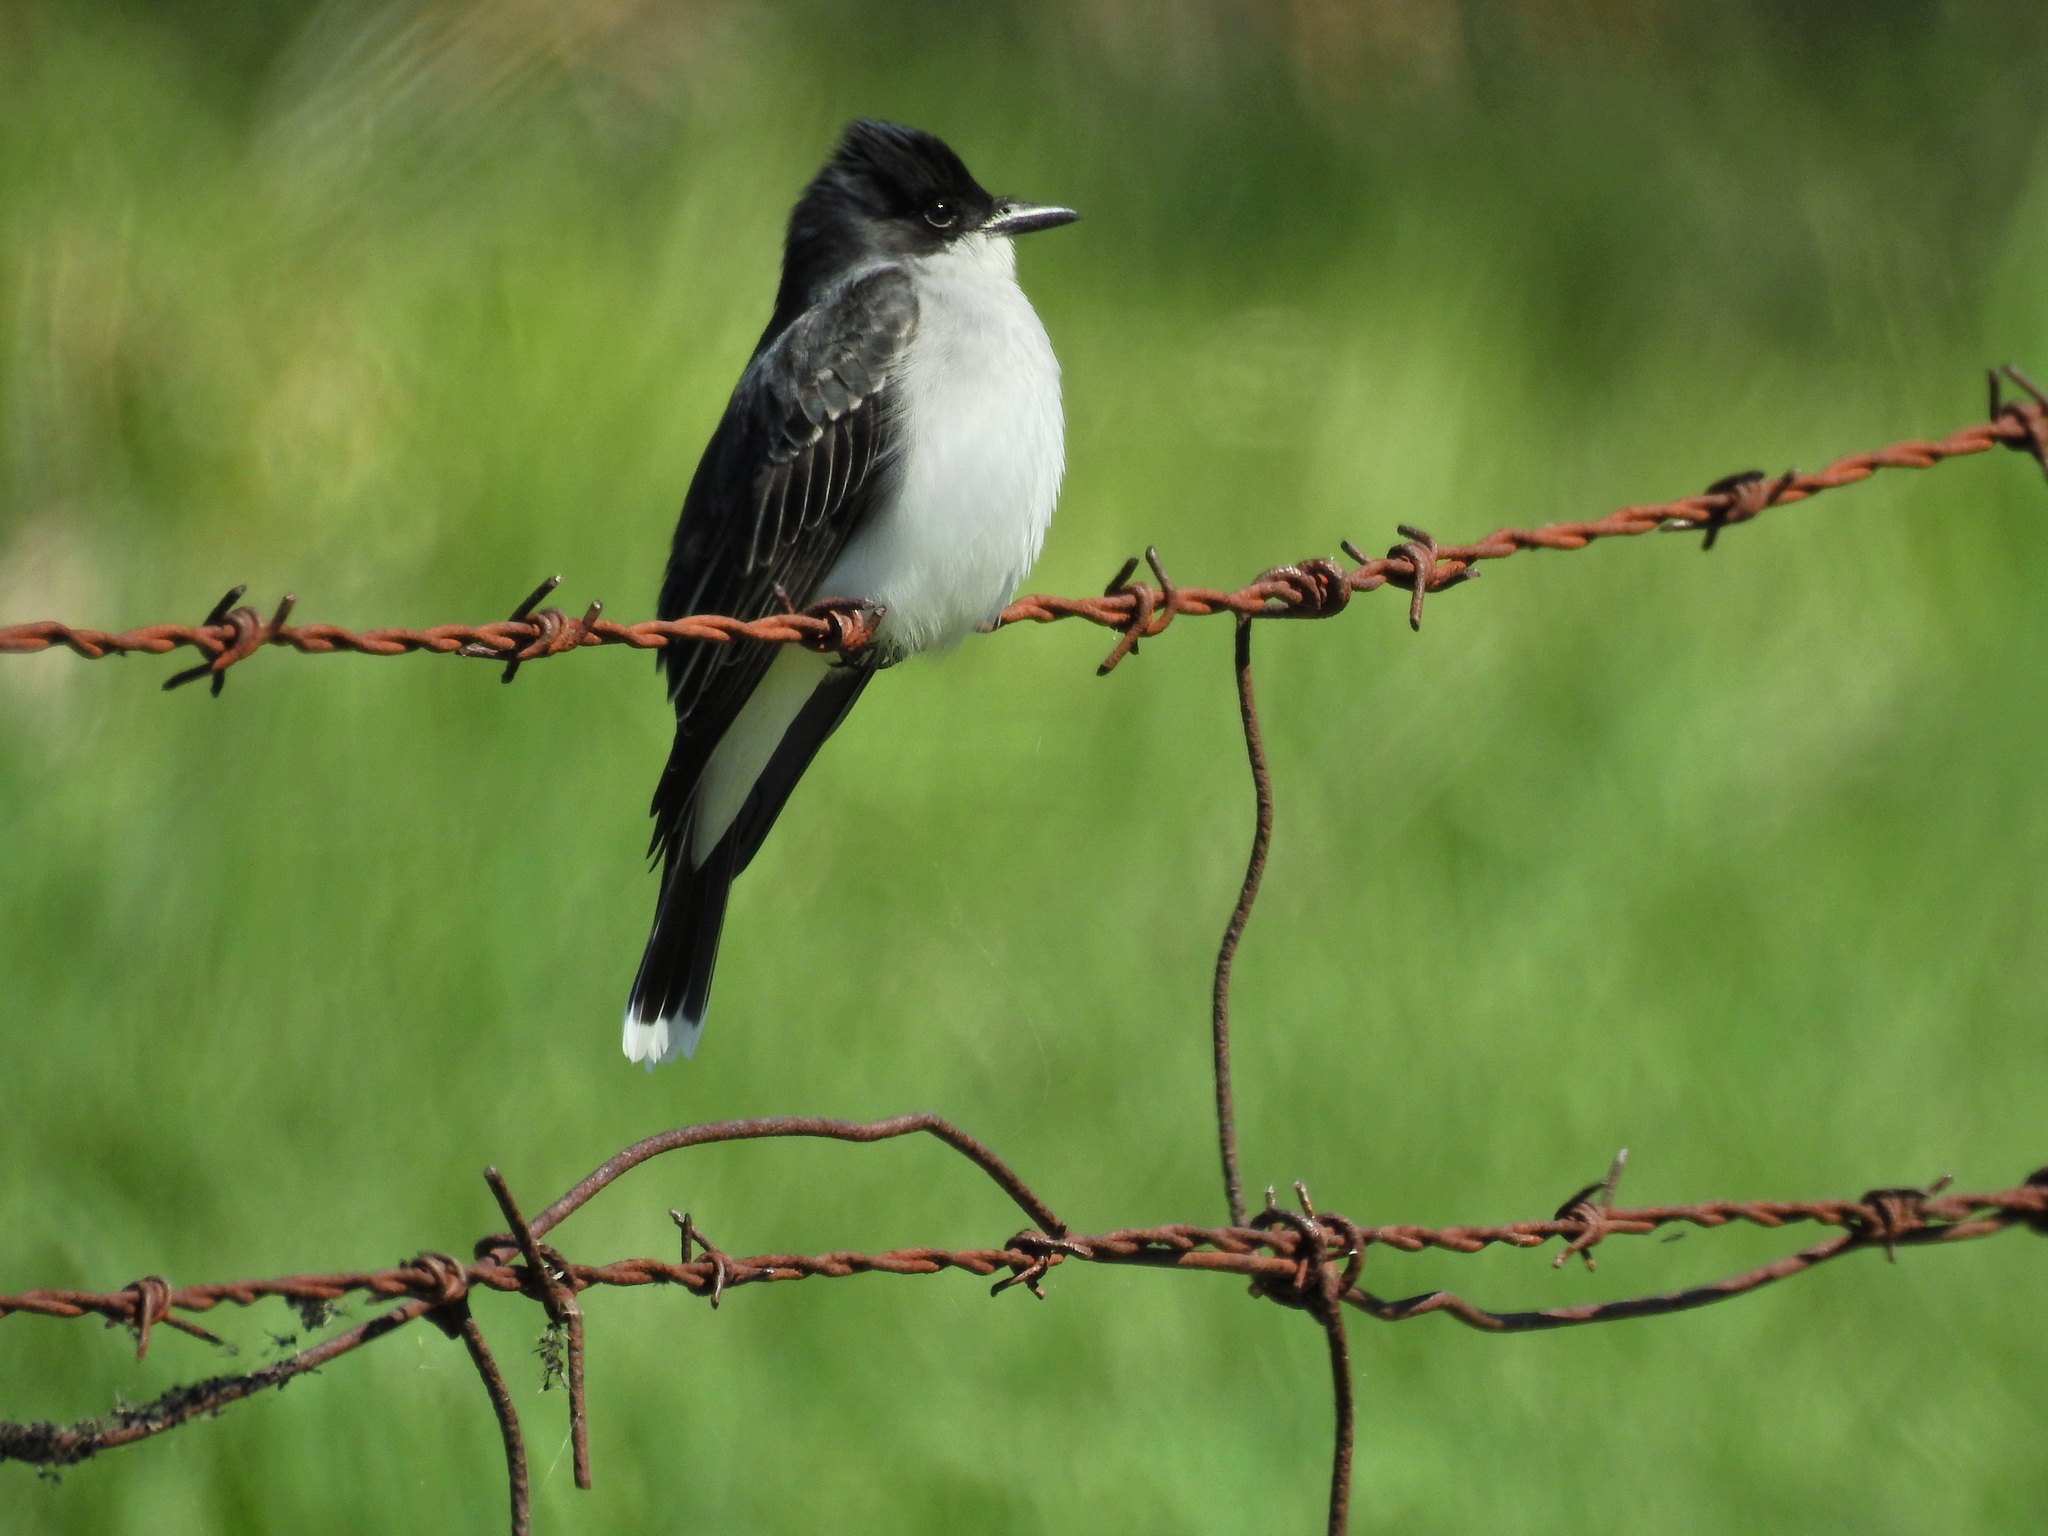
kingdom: Animalia
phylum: Chordata
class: Aves
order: Passeriformes
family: Tyrannidae
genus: Tyrannus
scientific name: Tyrannus tyrannus
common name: Eastern kingbird
